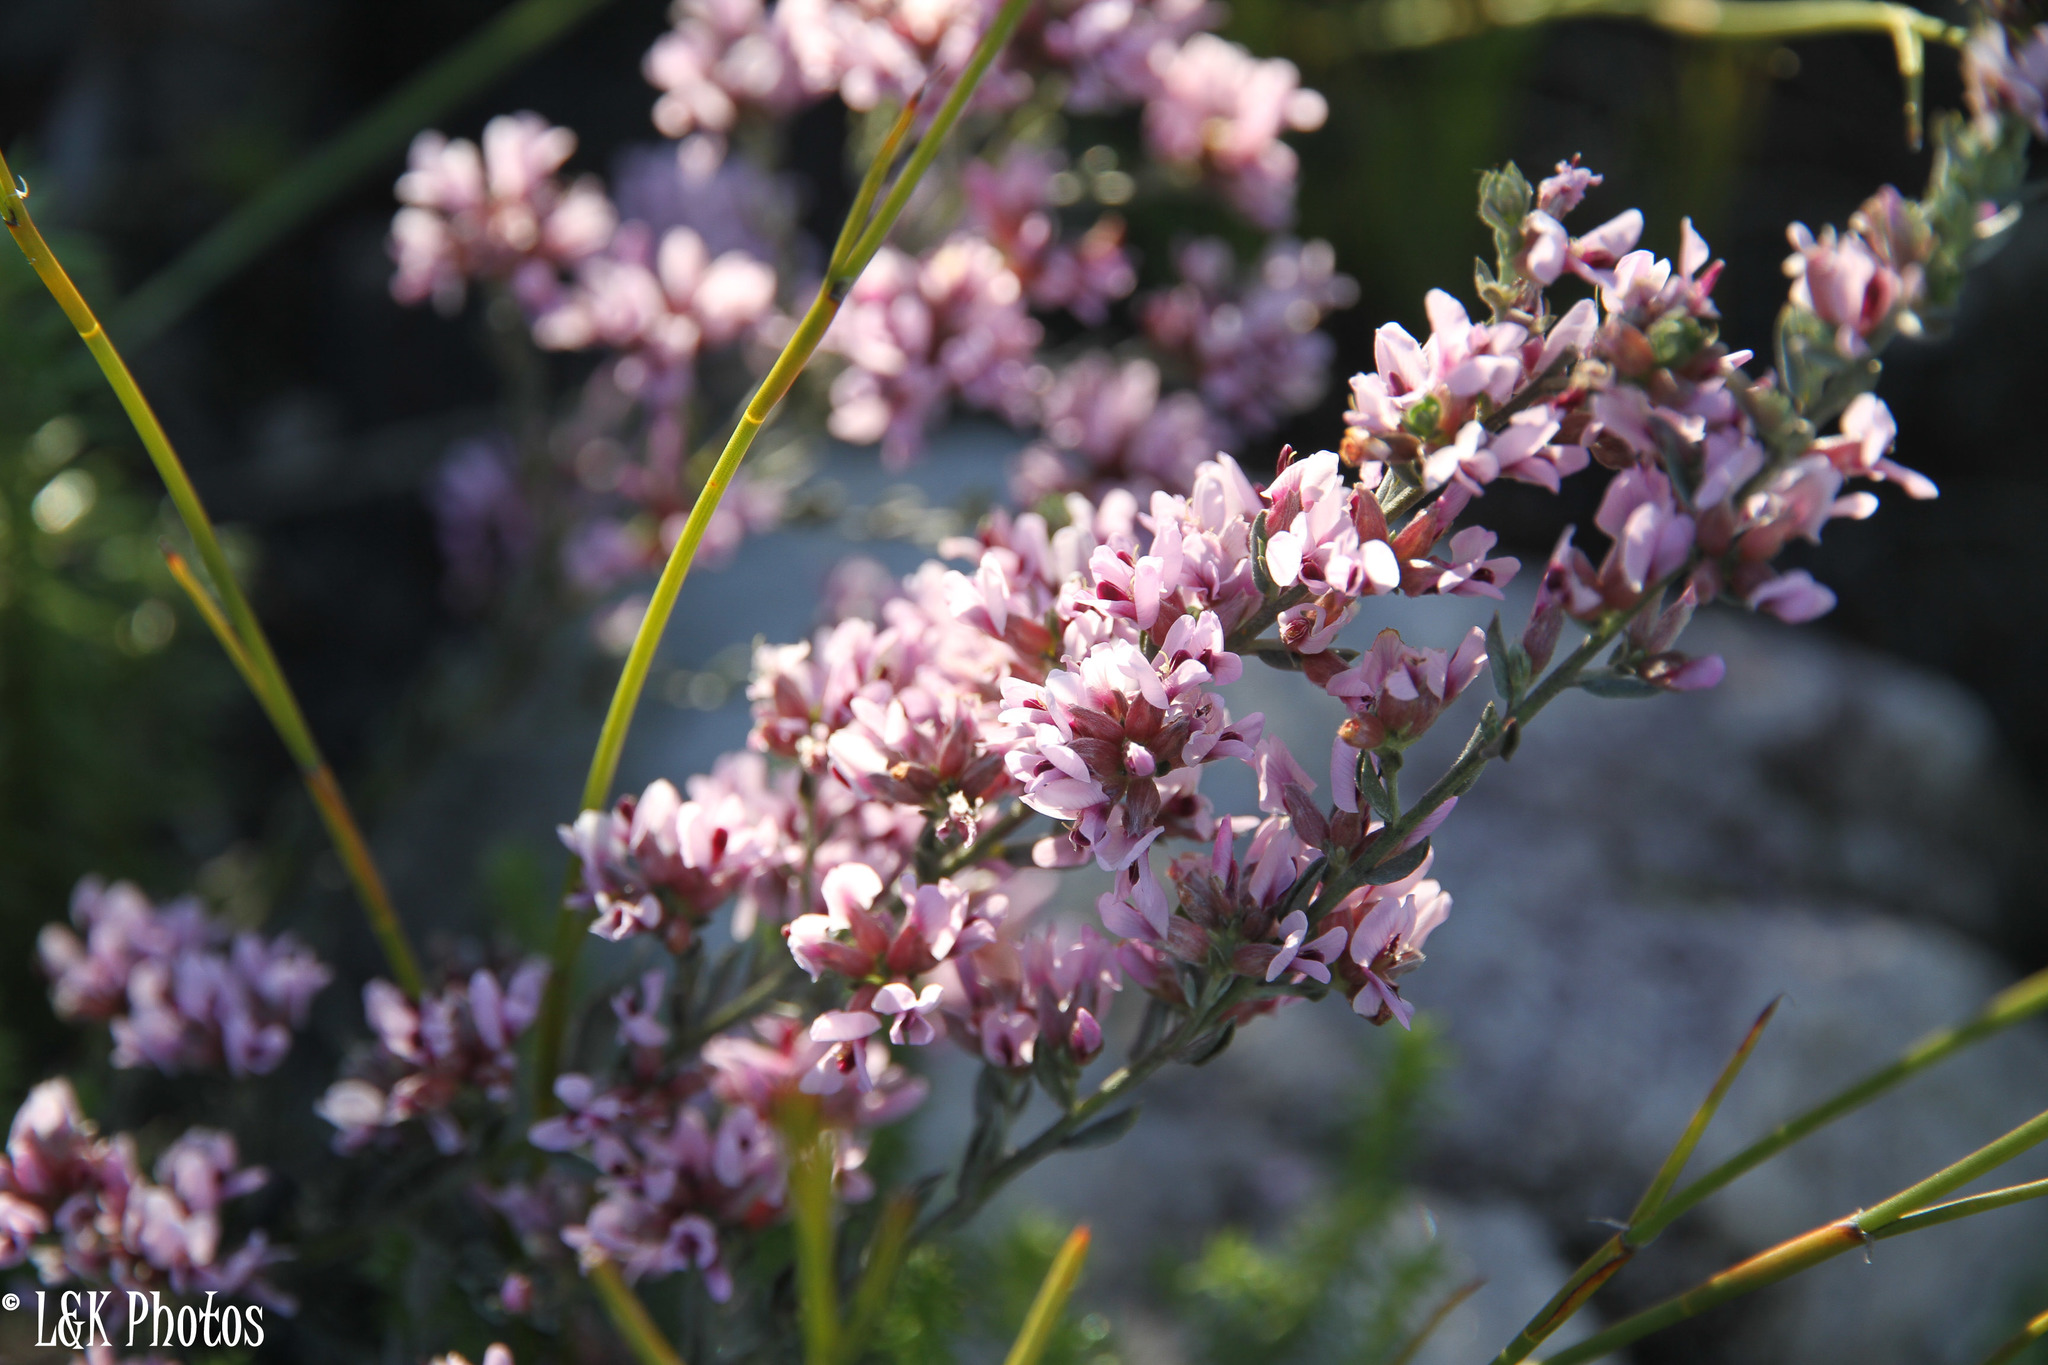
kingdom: Plantae
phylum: Tracheophyta
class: Magnoliopsida
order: Fabales
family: Fabaceae
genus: Amphithalea
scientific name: Amphithalea ericifolia
